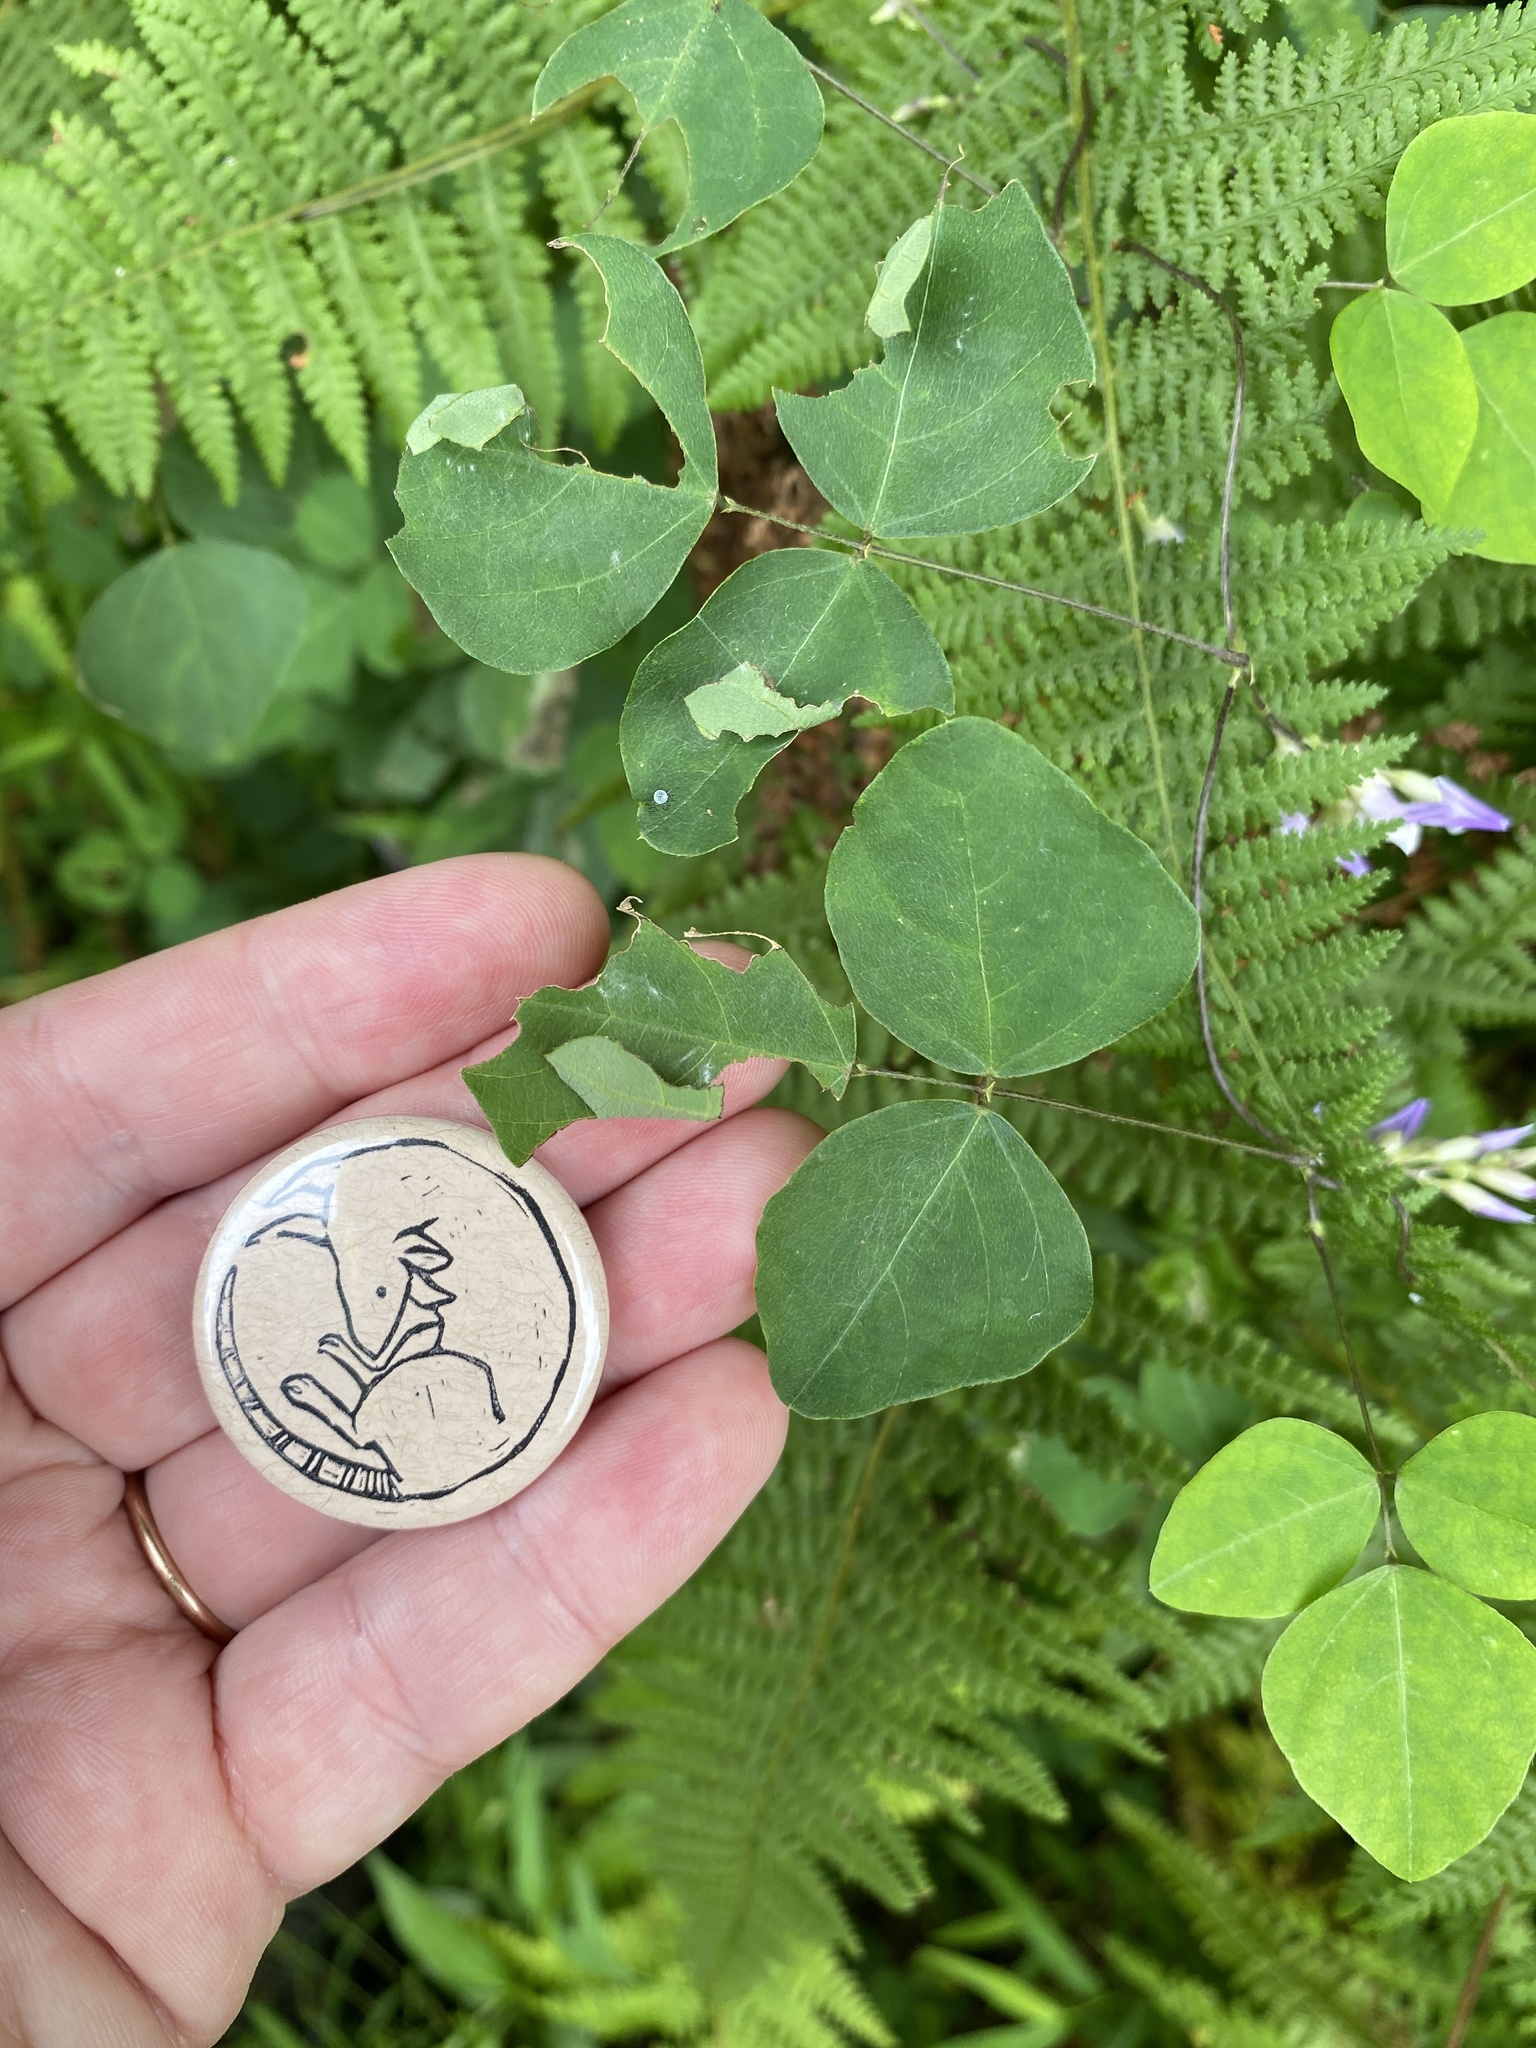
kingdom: Plantae
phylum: Tracheophyta
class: Magnoliopsida
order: Fabales
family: Fabaceae
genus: Amphicarpaea
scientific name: Amphicarpaea bracteata
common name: American hog peanut
